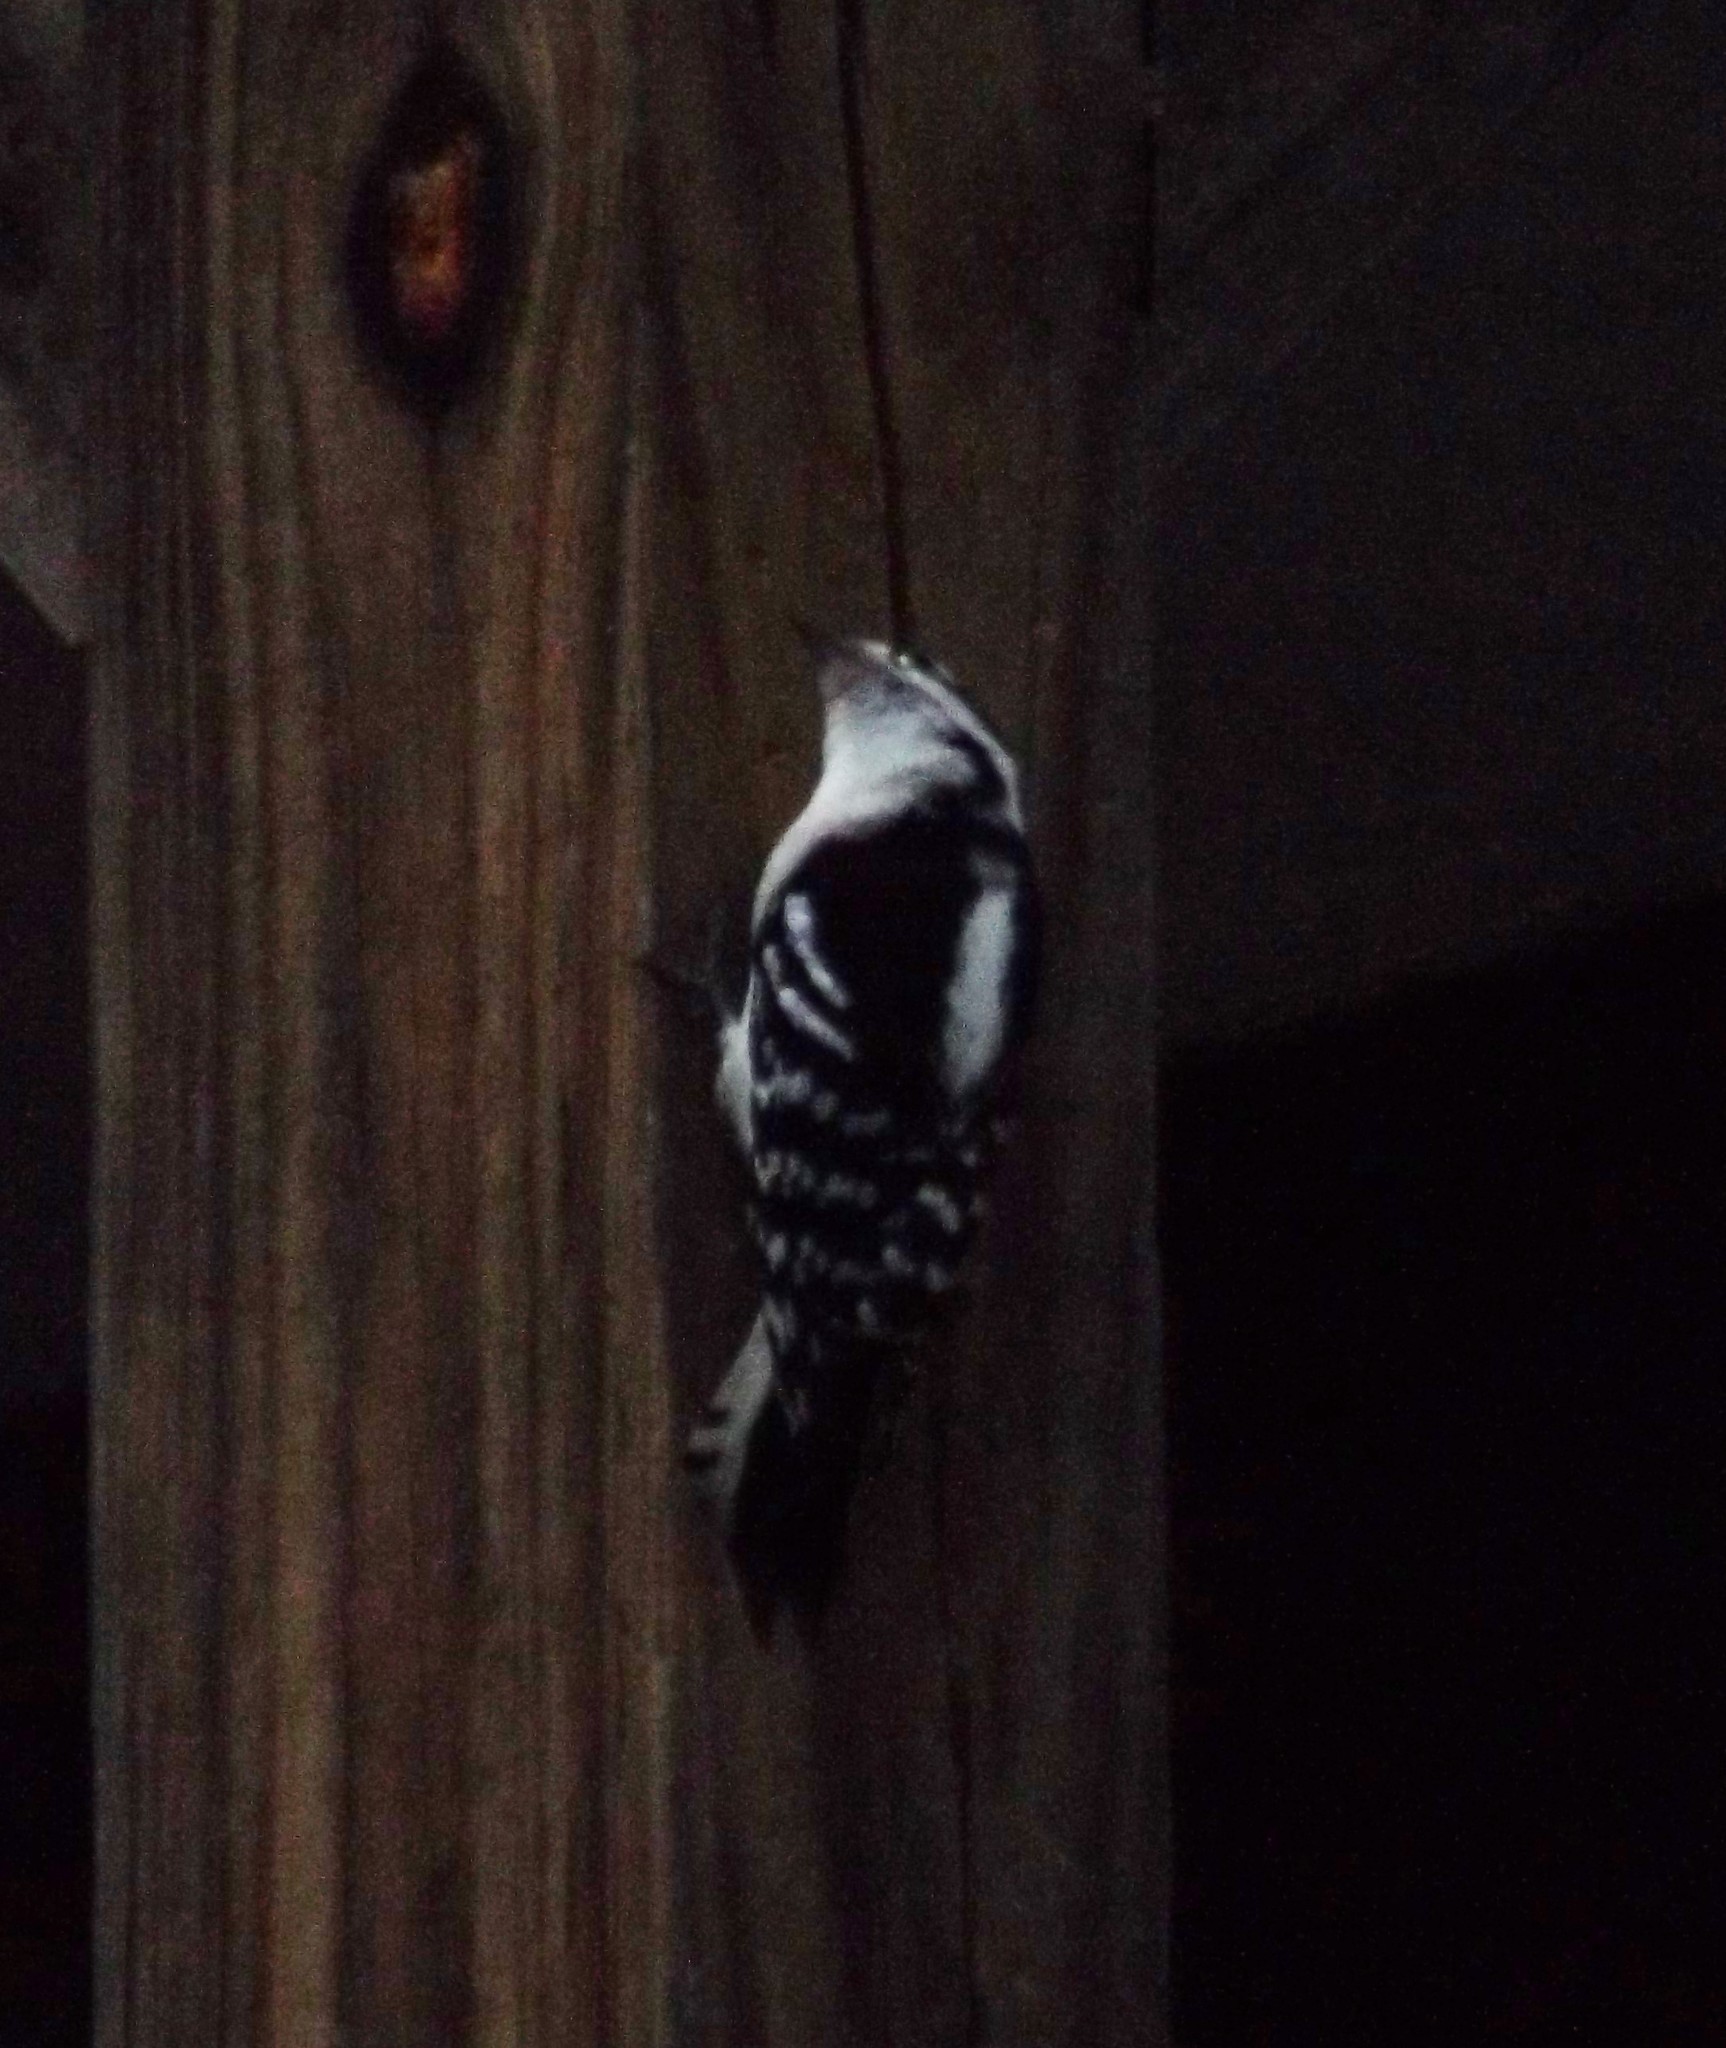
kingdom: Animalia
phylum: Chordata
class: Aves
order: Piciformes
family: Picidae
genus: Dryobates
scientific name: Dryobates pubescens
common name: Downy woodpecker
